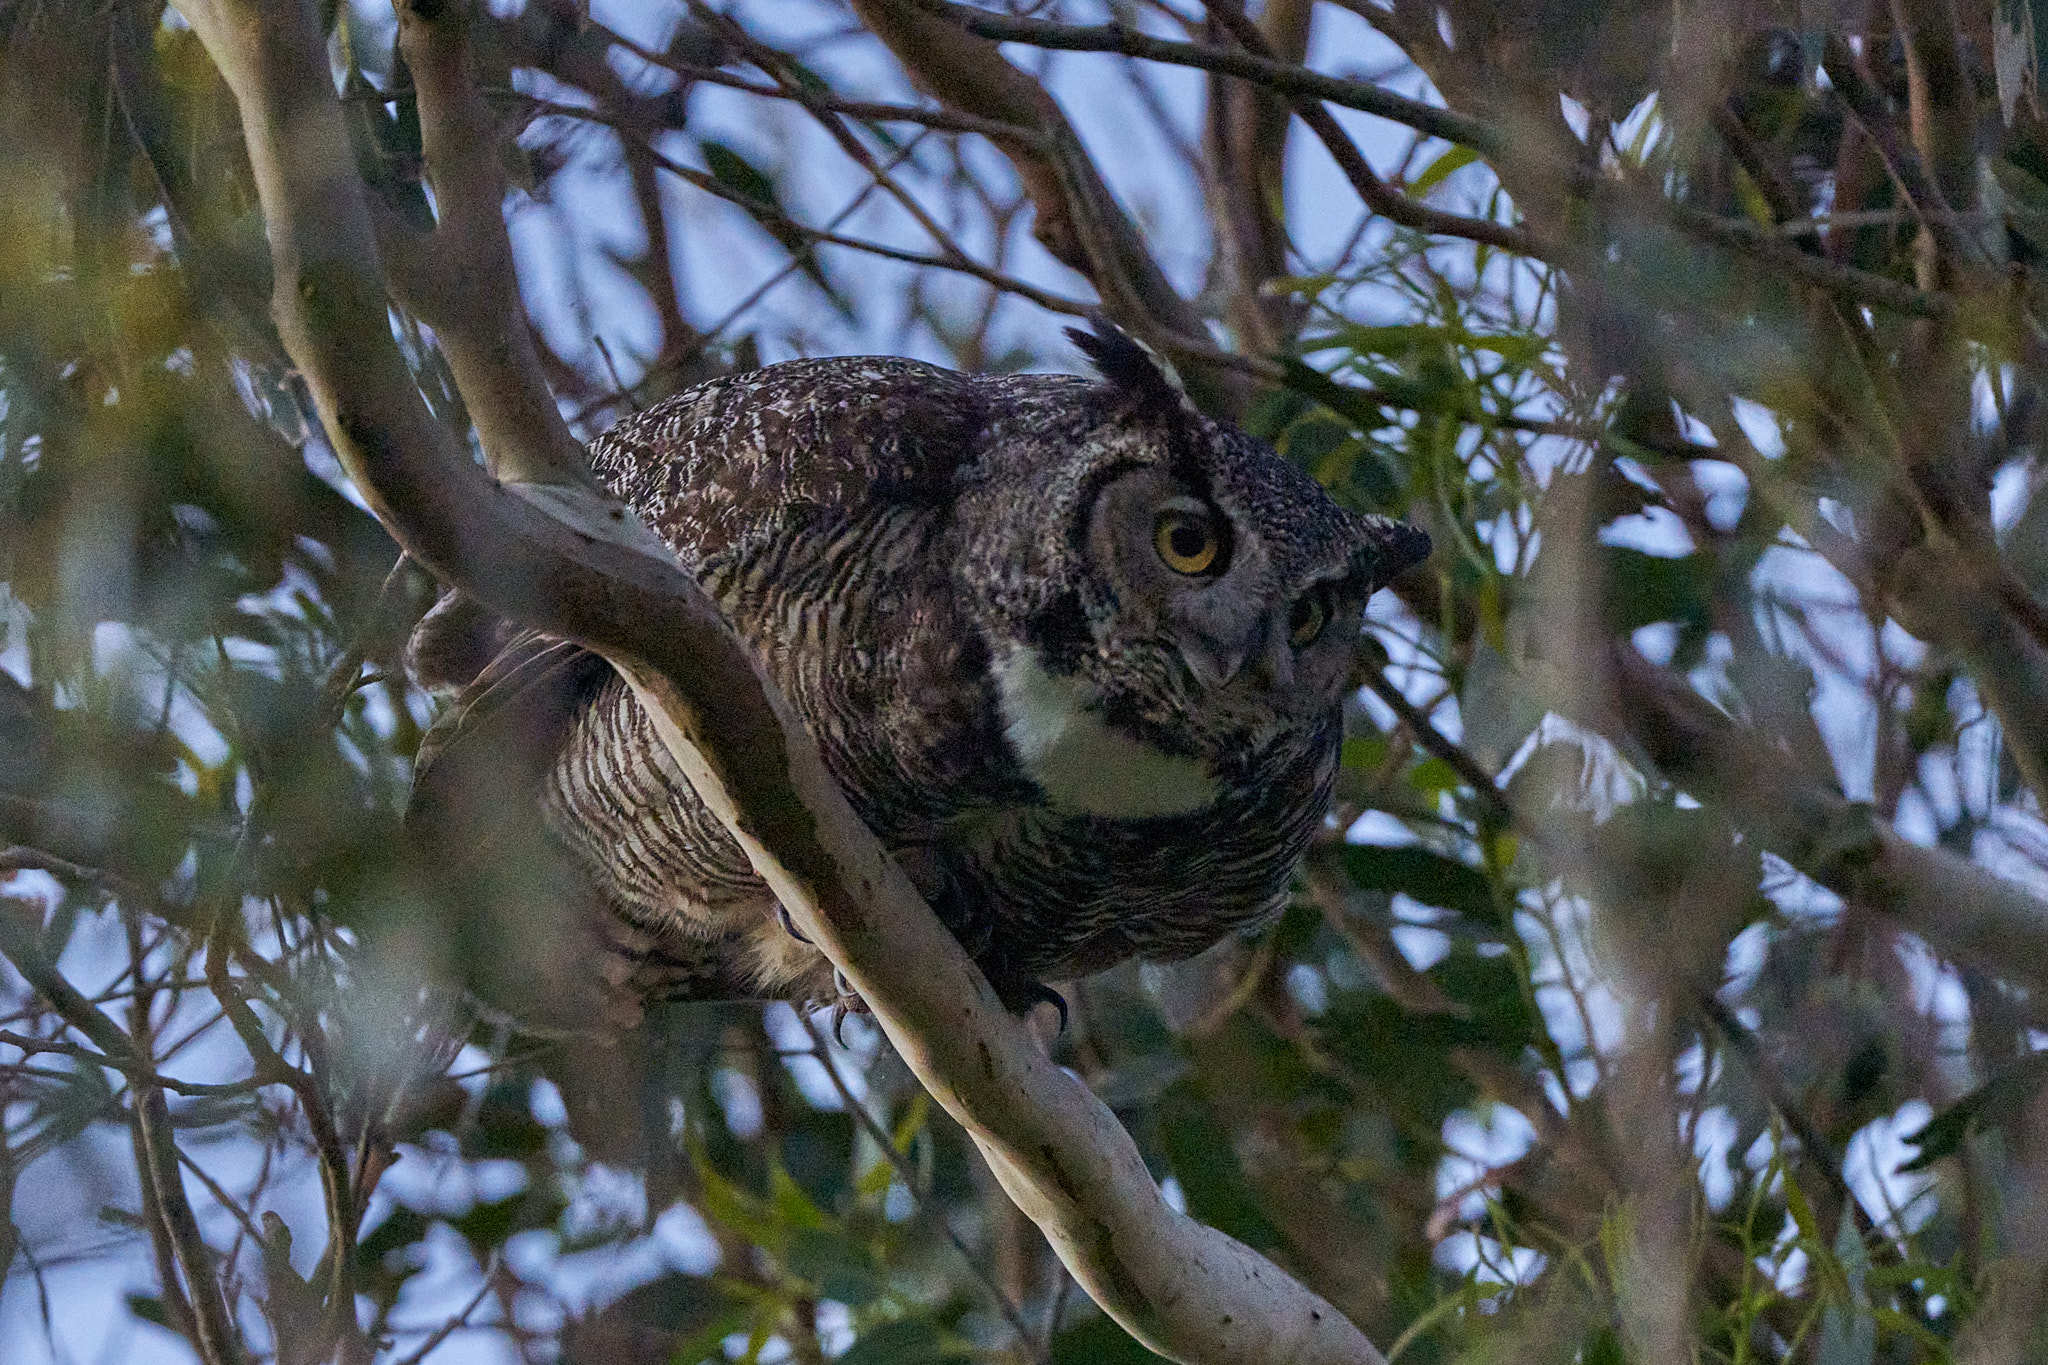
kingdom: Animalia
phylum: Chordata
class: Aves
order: Strigiformes
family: Strigidae
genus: Bubo
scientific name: Bubo virginianus
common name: Great horned owl
